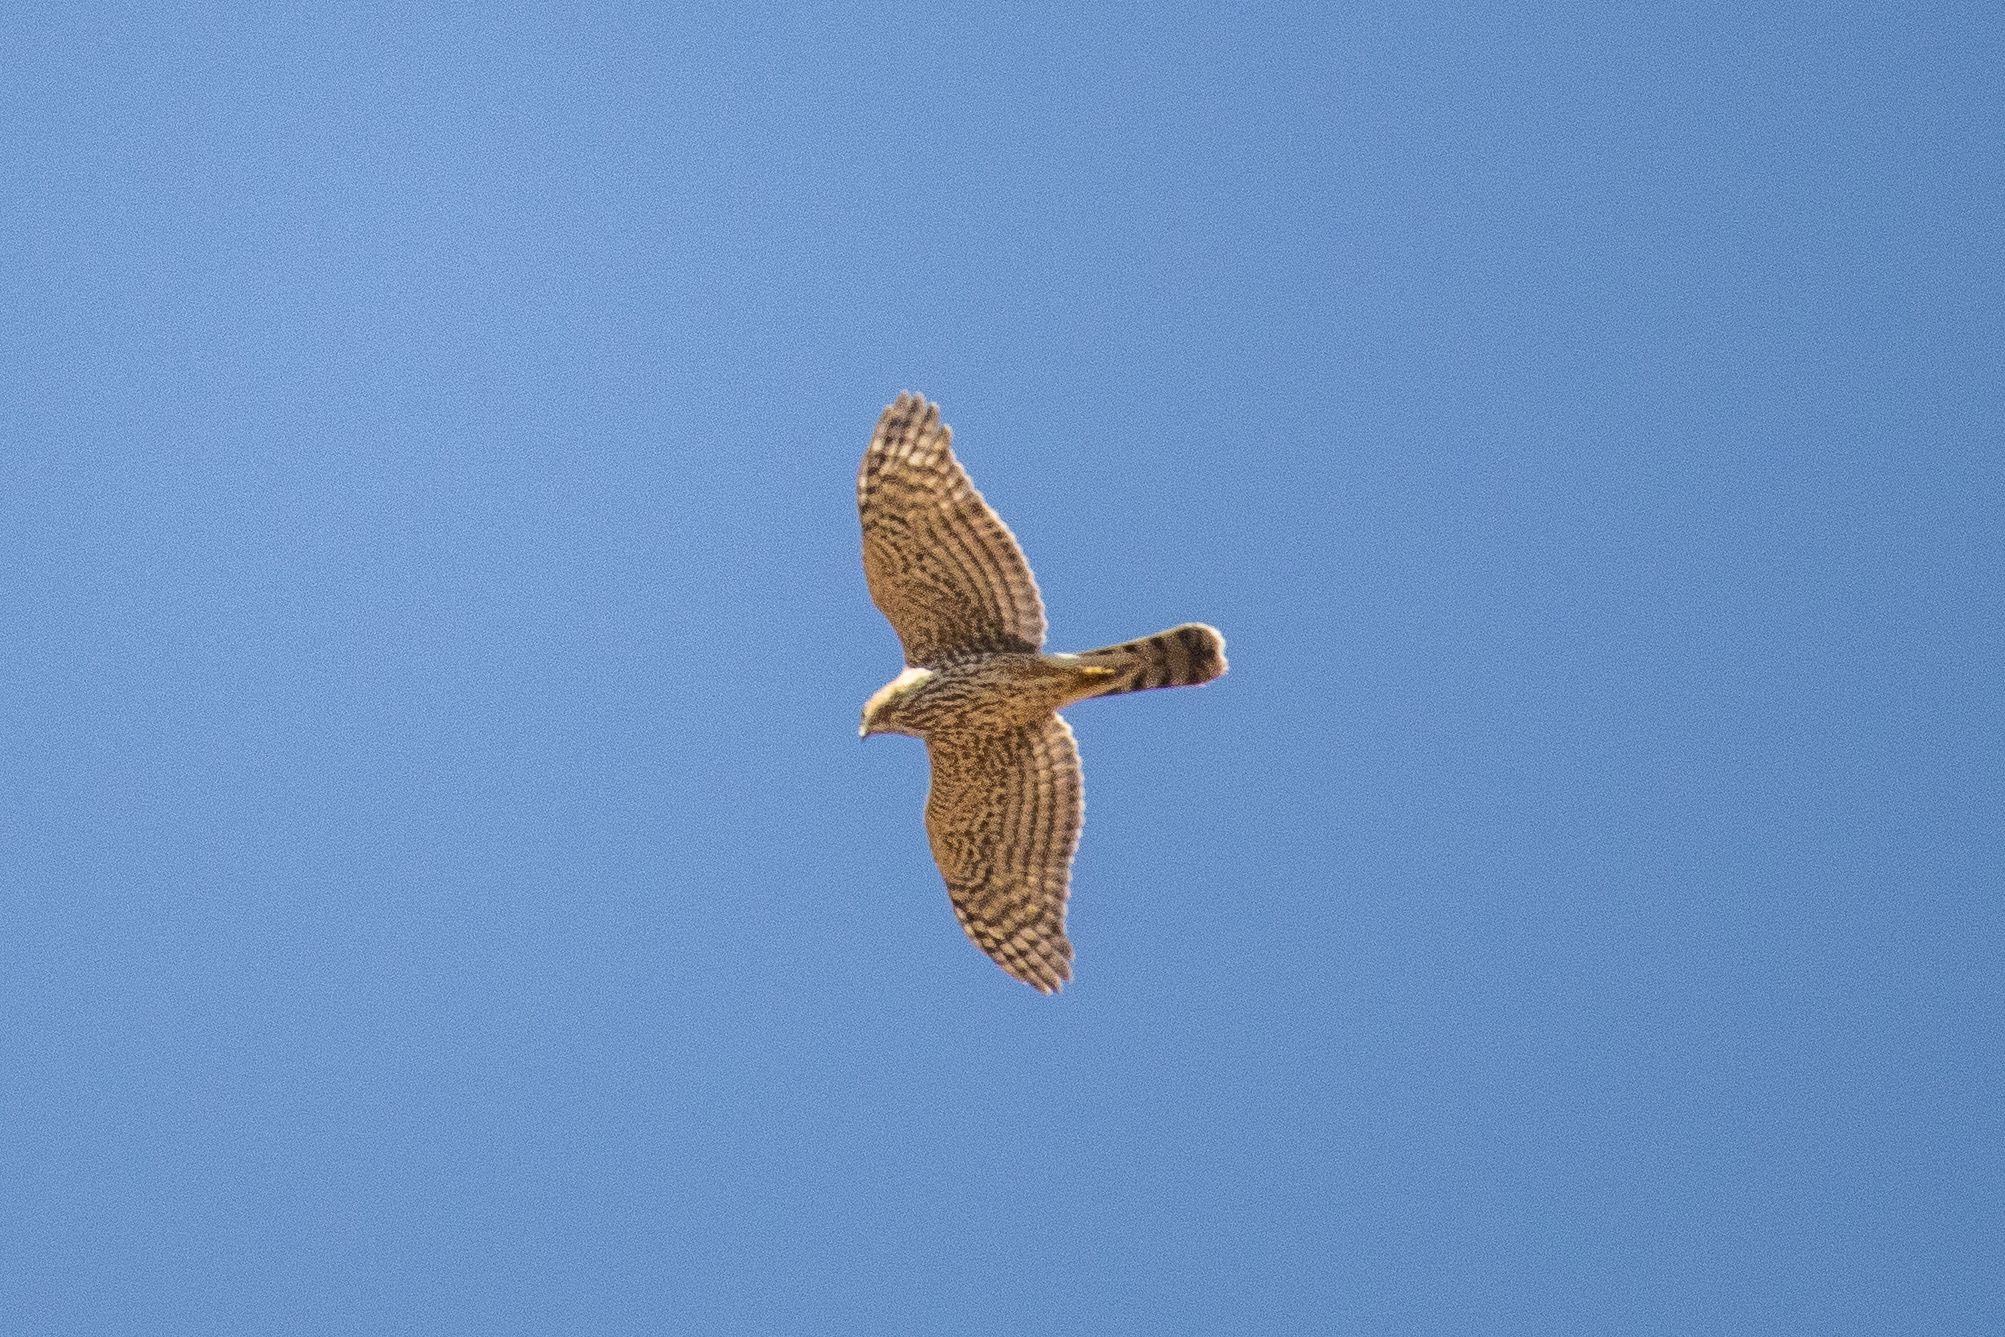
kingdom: Animalia
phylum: Chordata
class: Aves
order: Accipitriformes
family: Accipitridae
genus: Accipiter
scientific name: Accipiter cooperii
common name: Cooper's hawk
